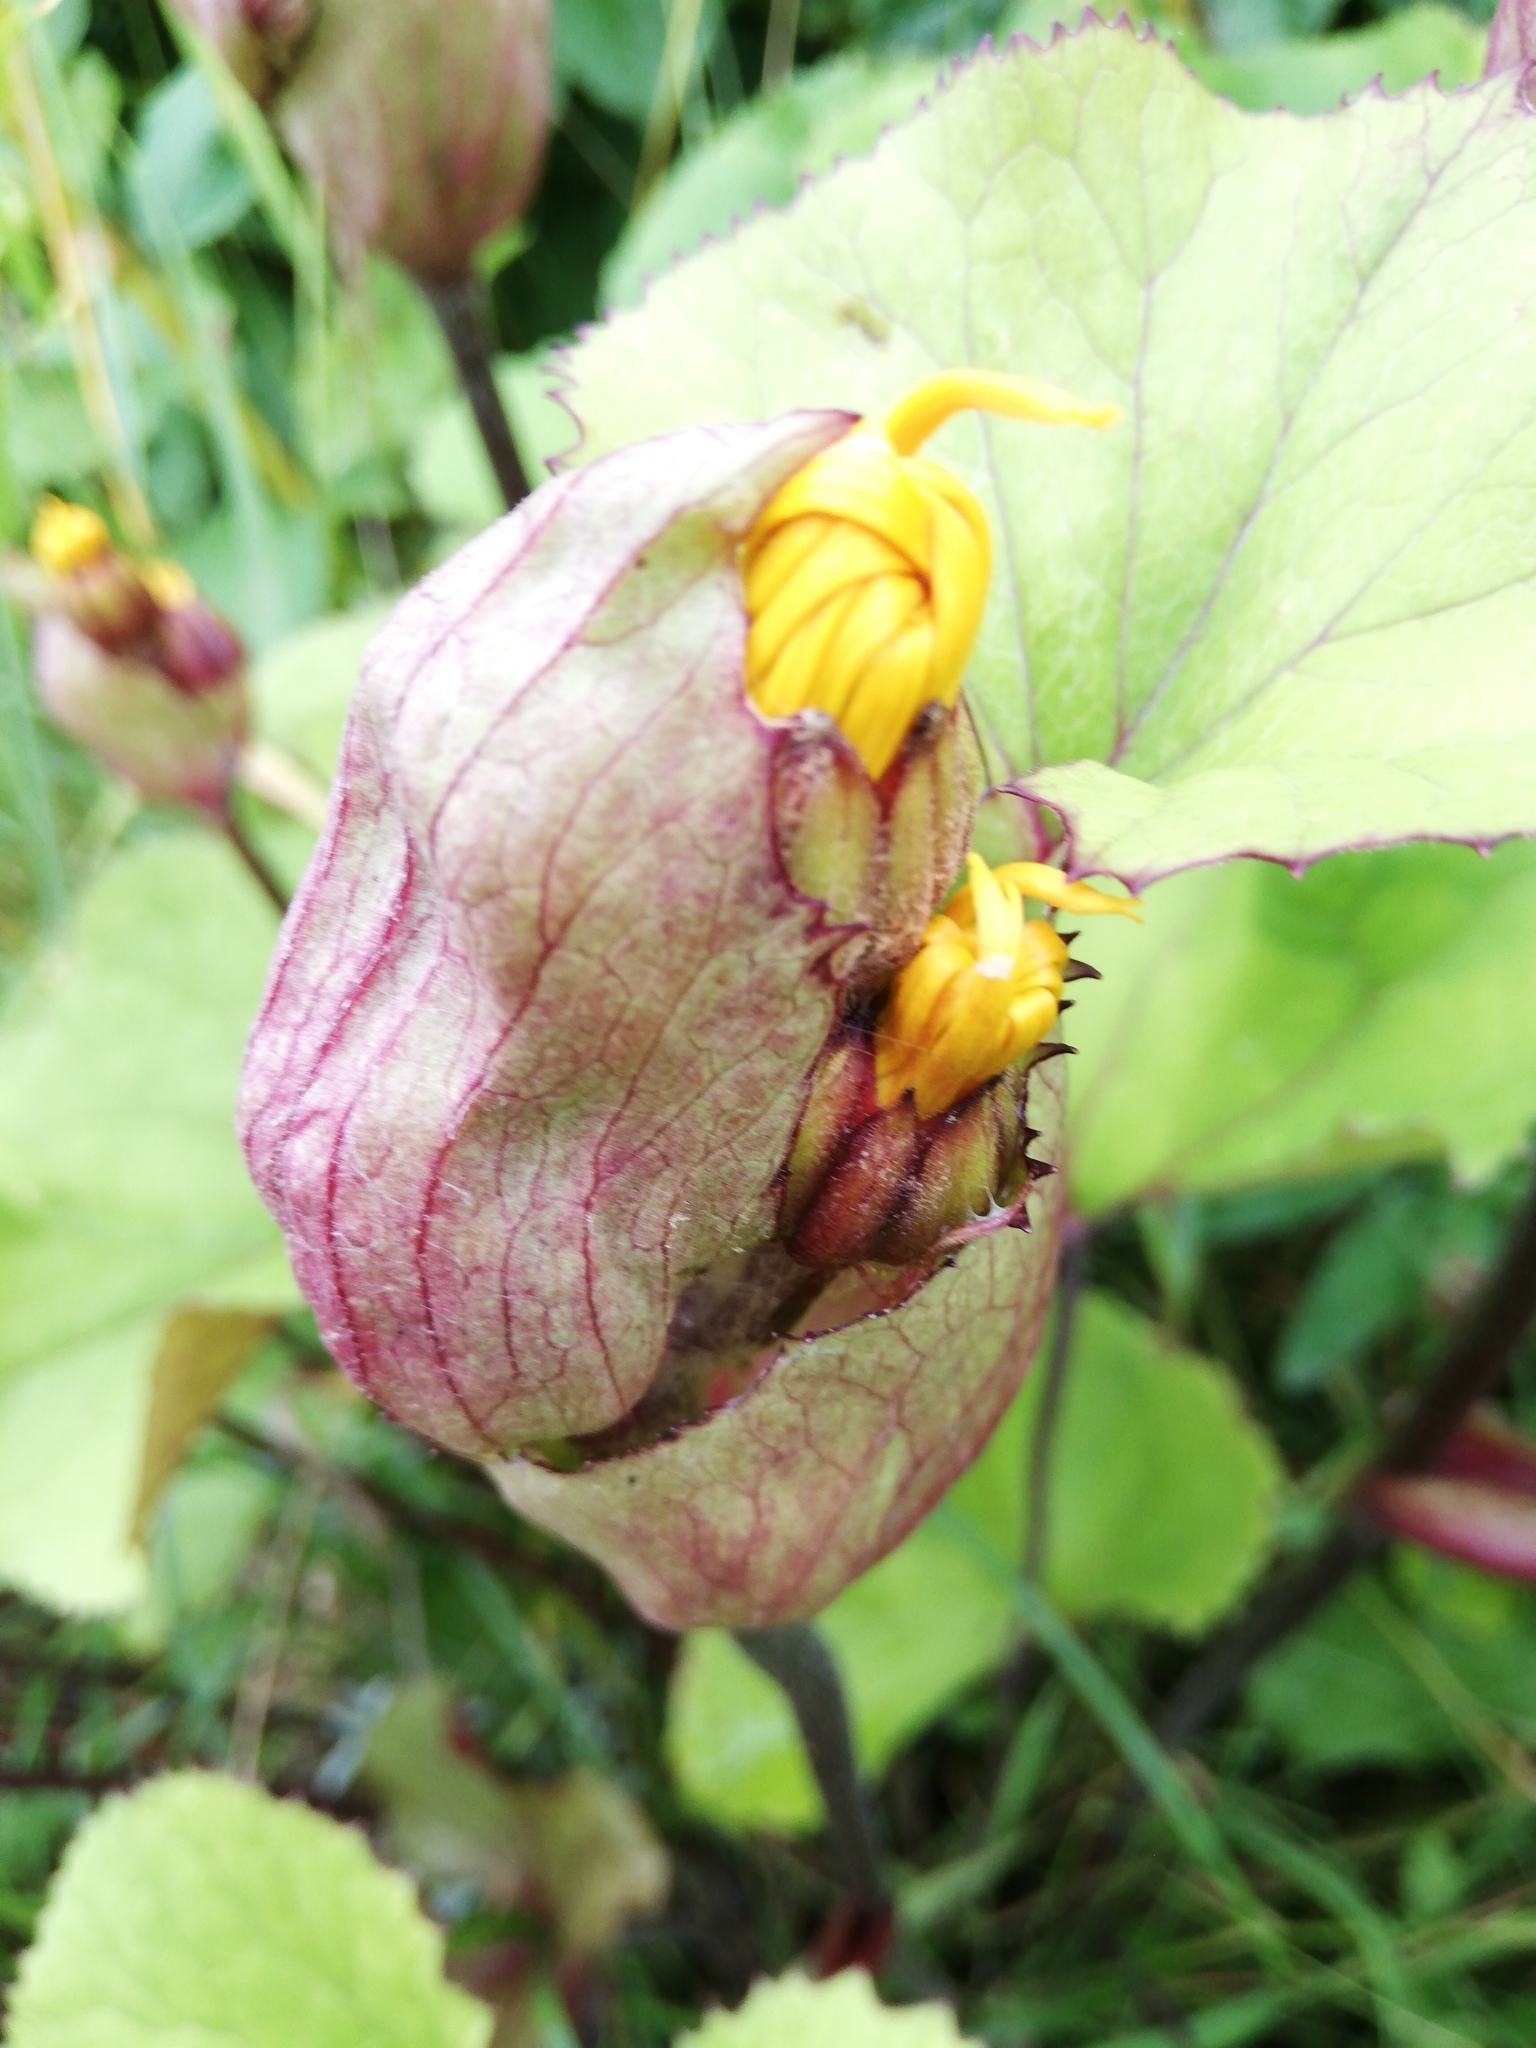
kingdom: Plantae
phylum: Tracheophyta
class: Magnoliopsida
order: Asterales
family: Asteraceae
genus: Ligularia
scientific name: Ligularia sibirica
